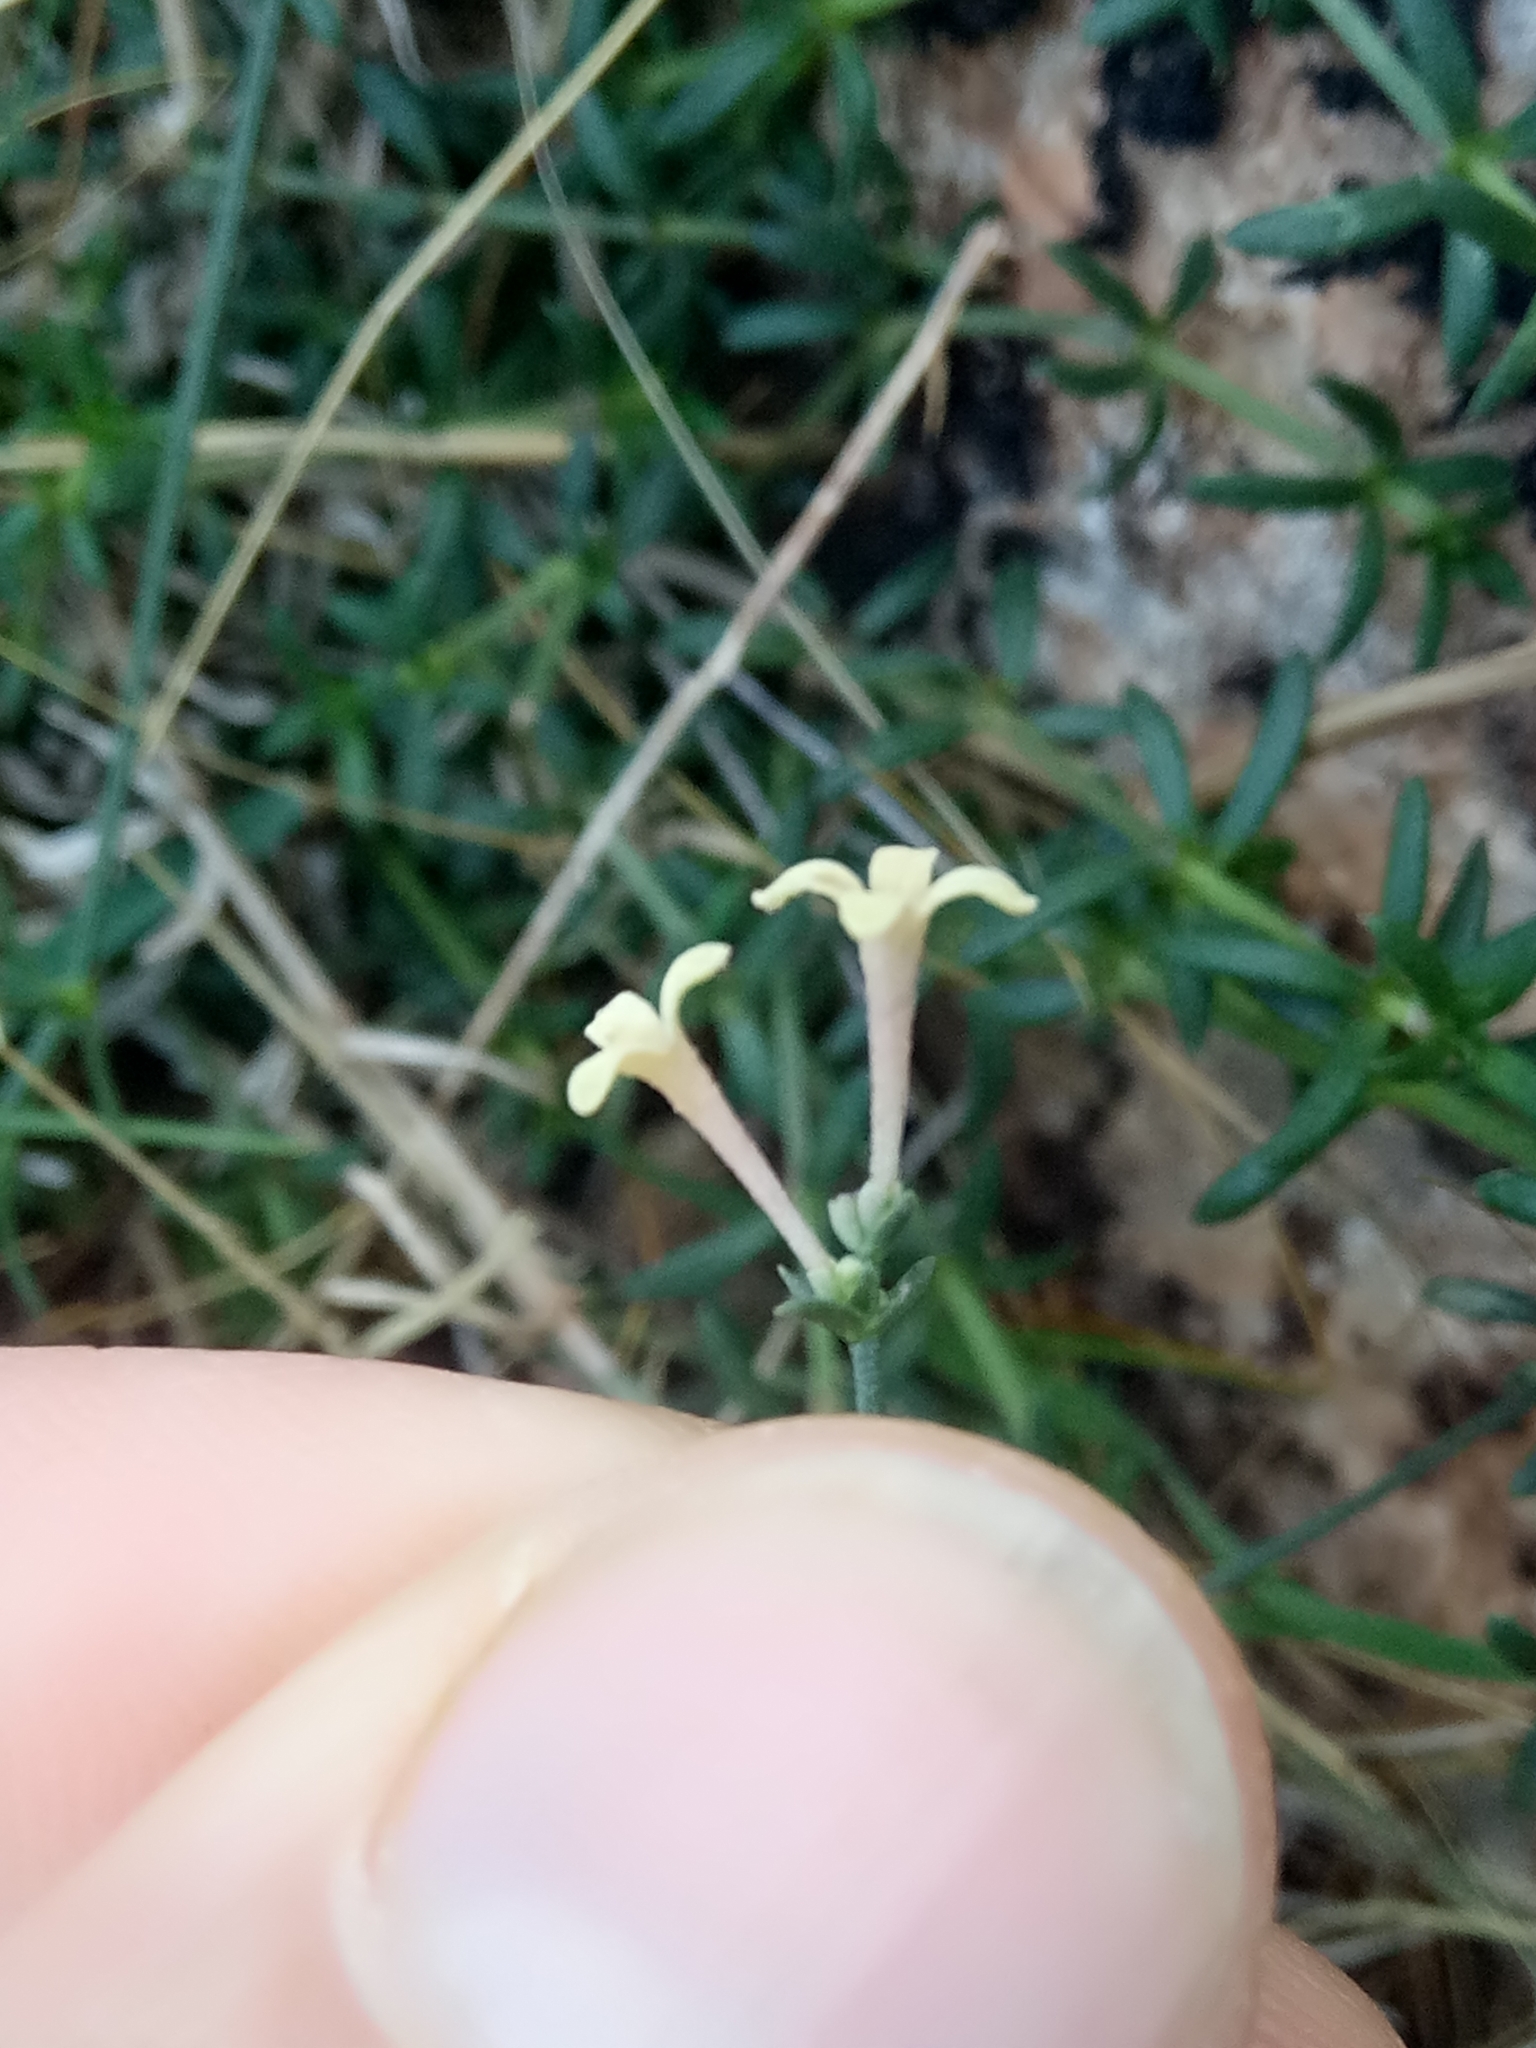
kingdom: Plantae
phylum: Tracheophyta
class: Magnoliopsida
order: Gentianales
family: Rubiaceae
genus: Cynanchica
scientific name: Cynanchica aristata
